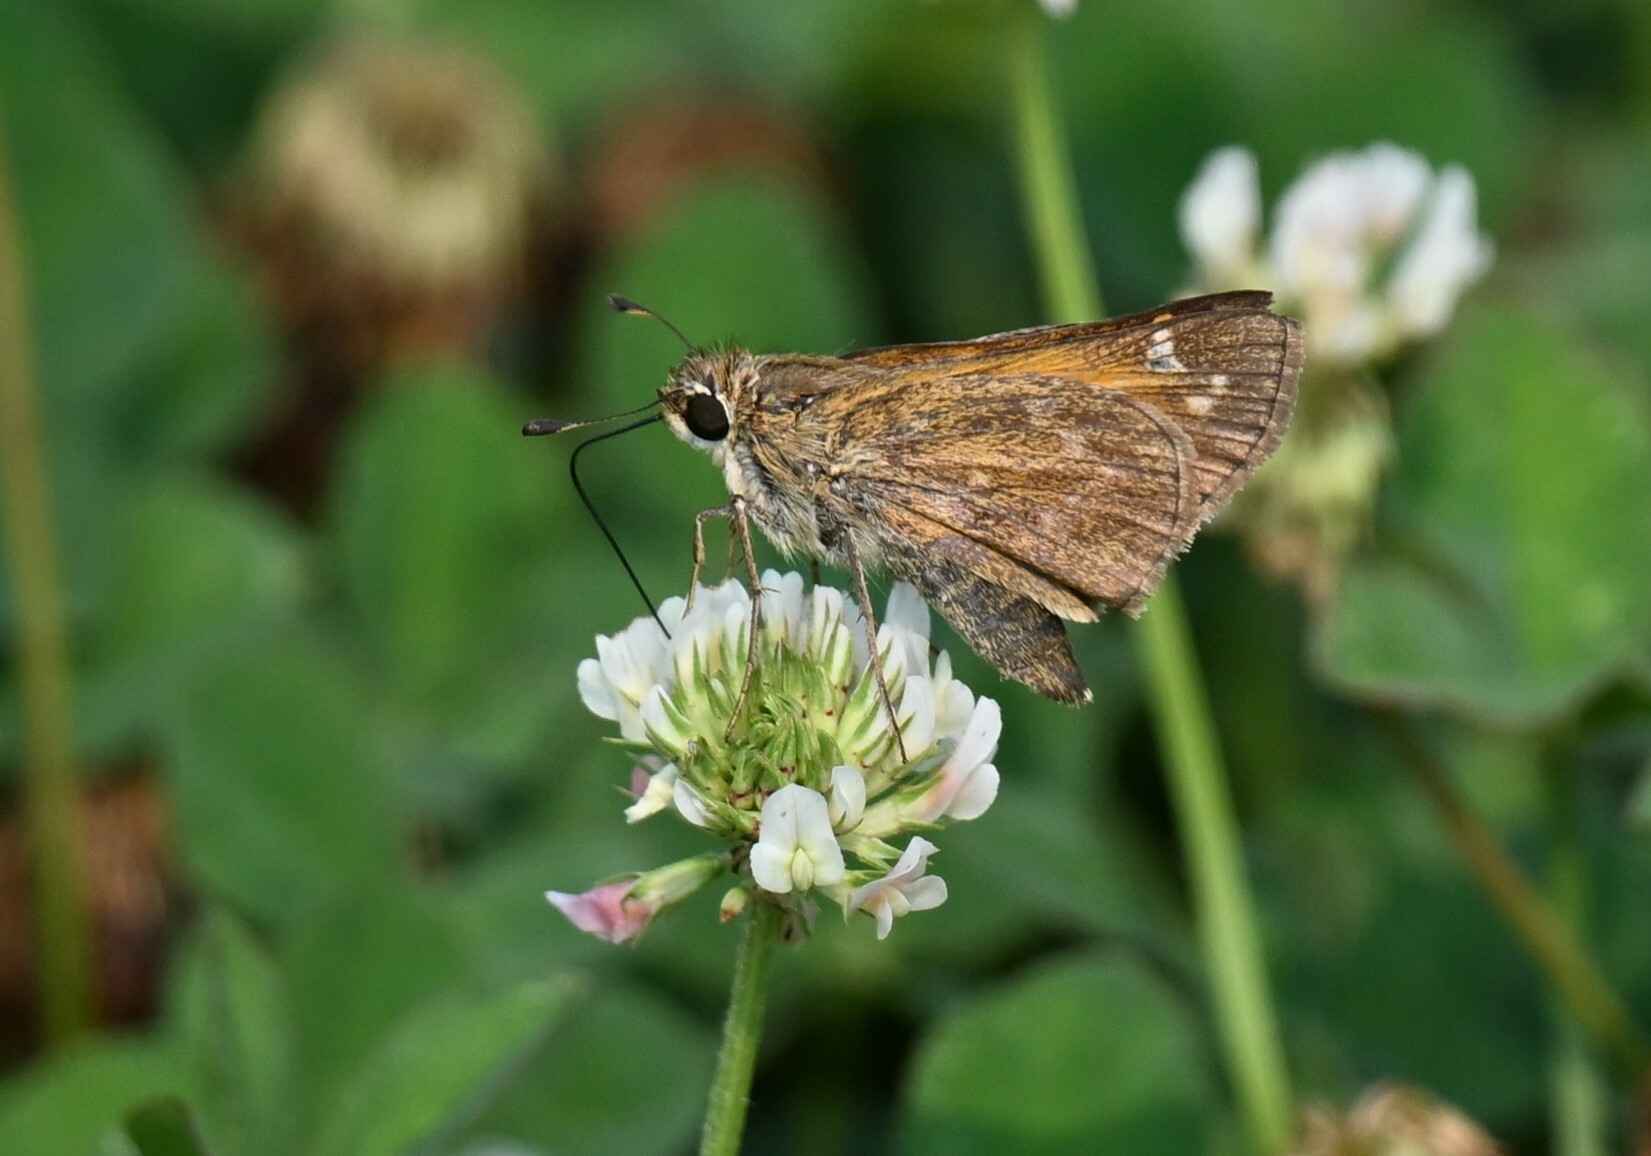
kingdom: Animalia
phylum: Arthropoda
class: Insecta
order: Lepidoptera
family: Hesperiidae
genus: Atalopedes
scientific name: Atalopedes
